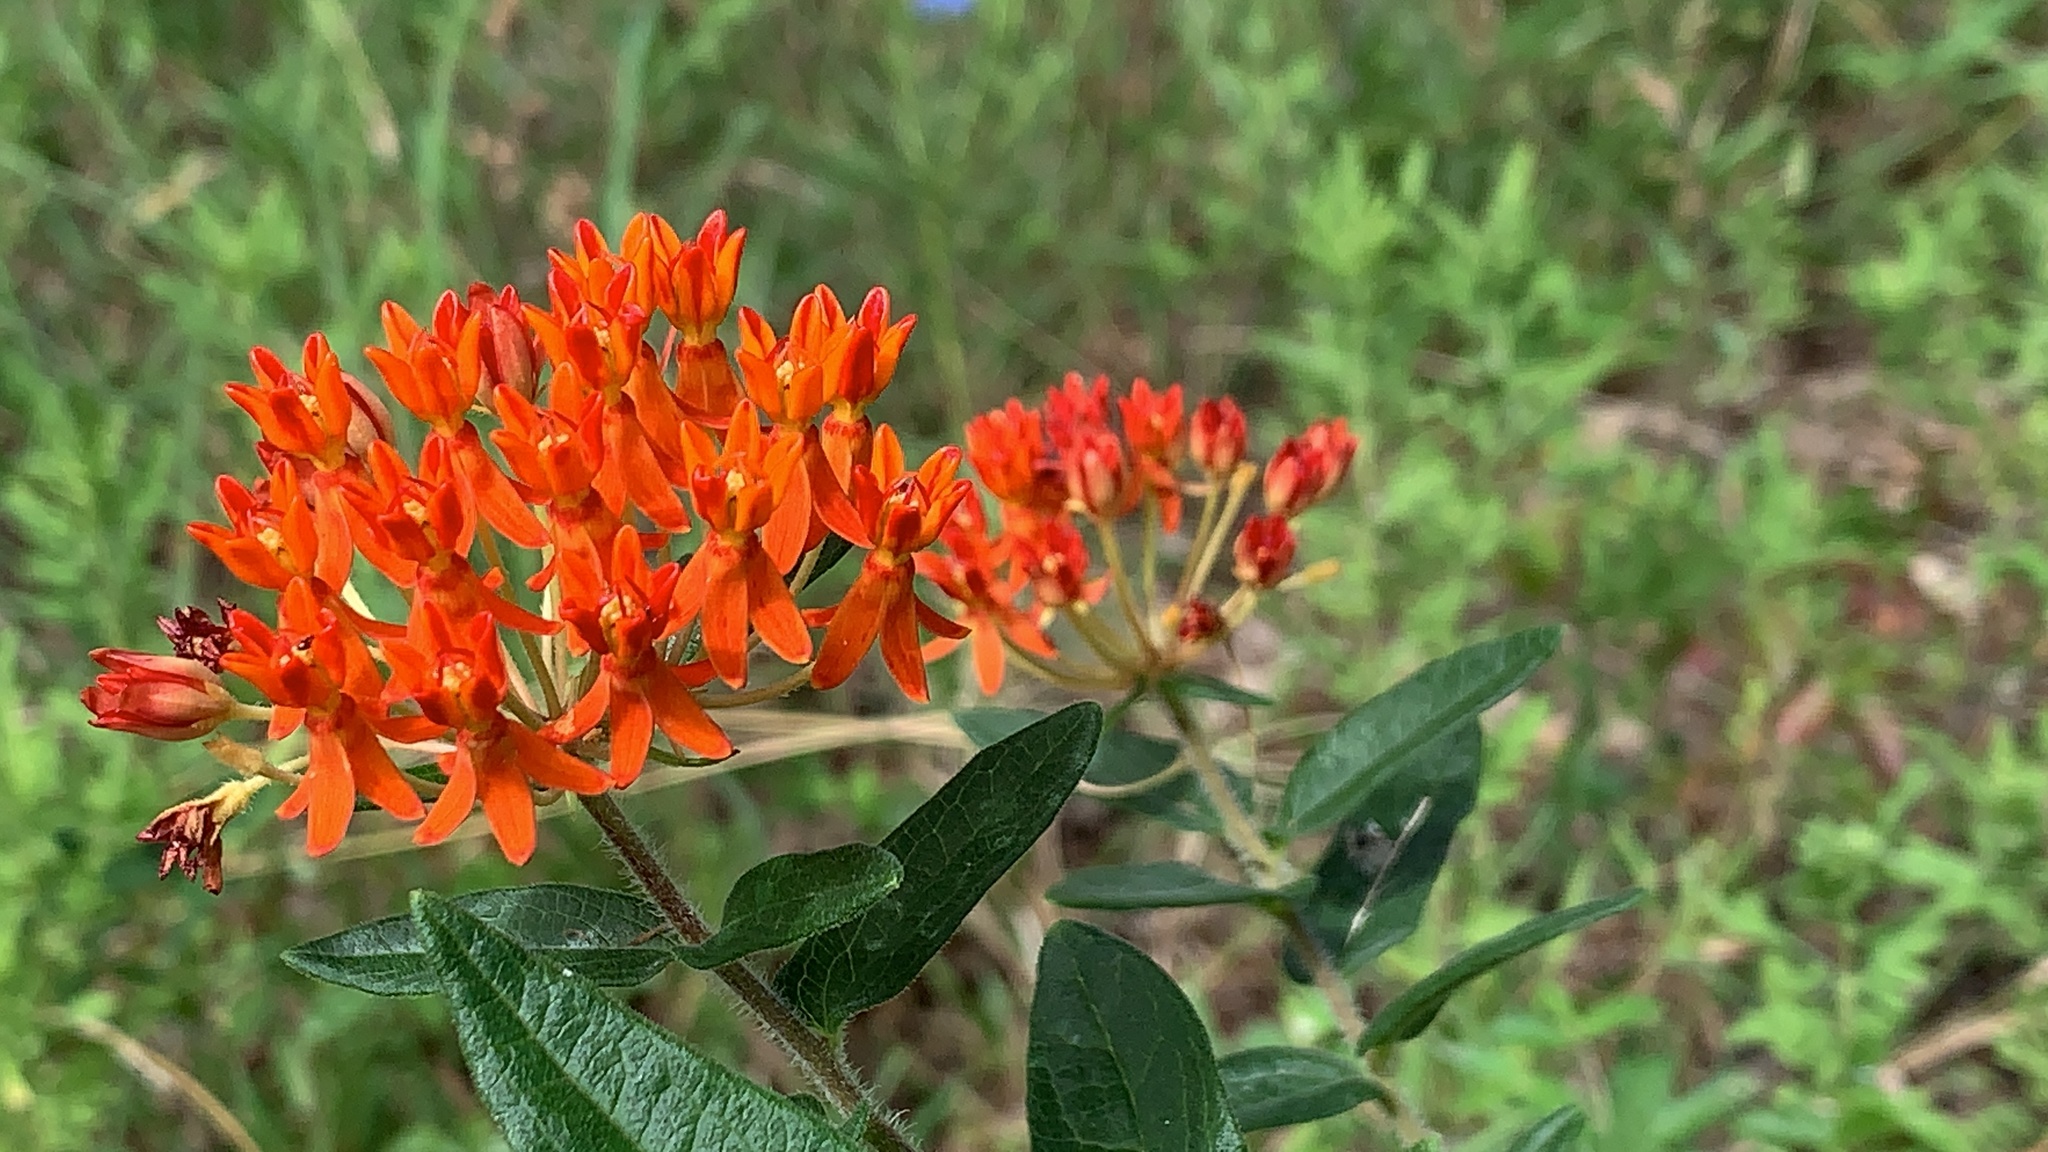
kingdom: Plantae
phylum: Tracheophyta
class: Magnoliopsida
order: Gentianales
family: Apocynaceae
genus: Asclepias
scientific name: Asclepias tuberosa
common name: Butterfly milkweed
